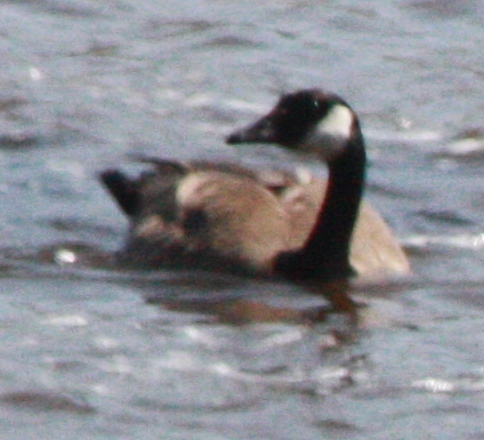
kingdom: Animalia
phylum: Chordata
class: Aves
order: Anseriformes
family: Anatidae
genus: Branta
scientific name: Branta canadensis
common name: Canada goose
